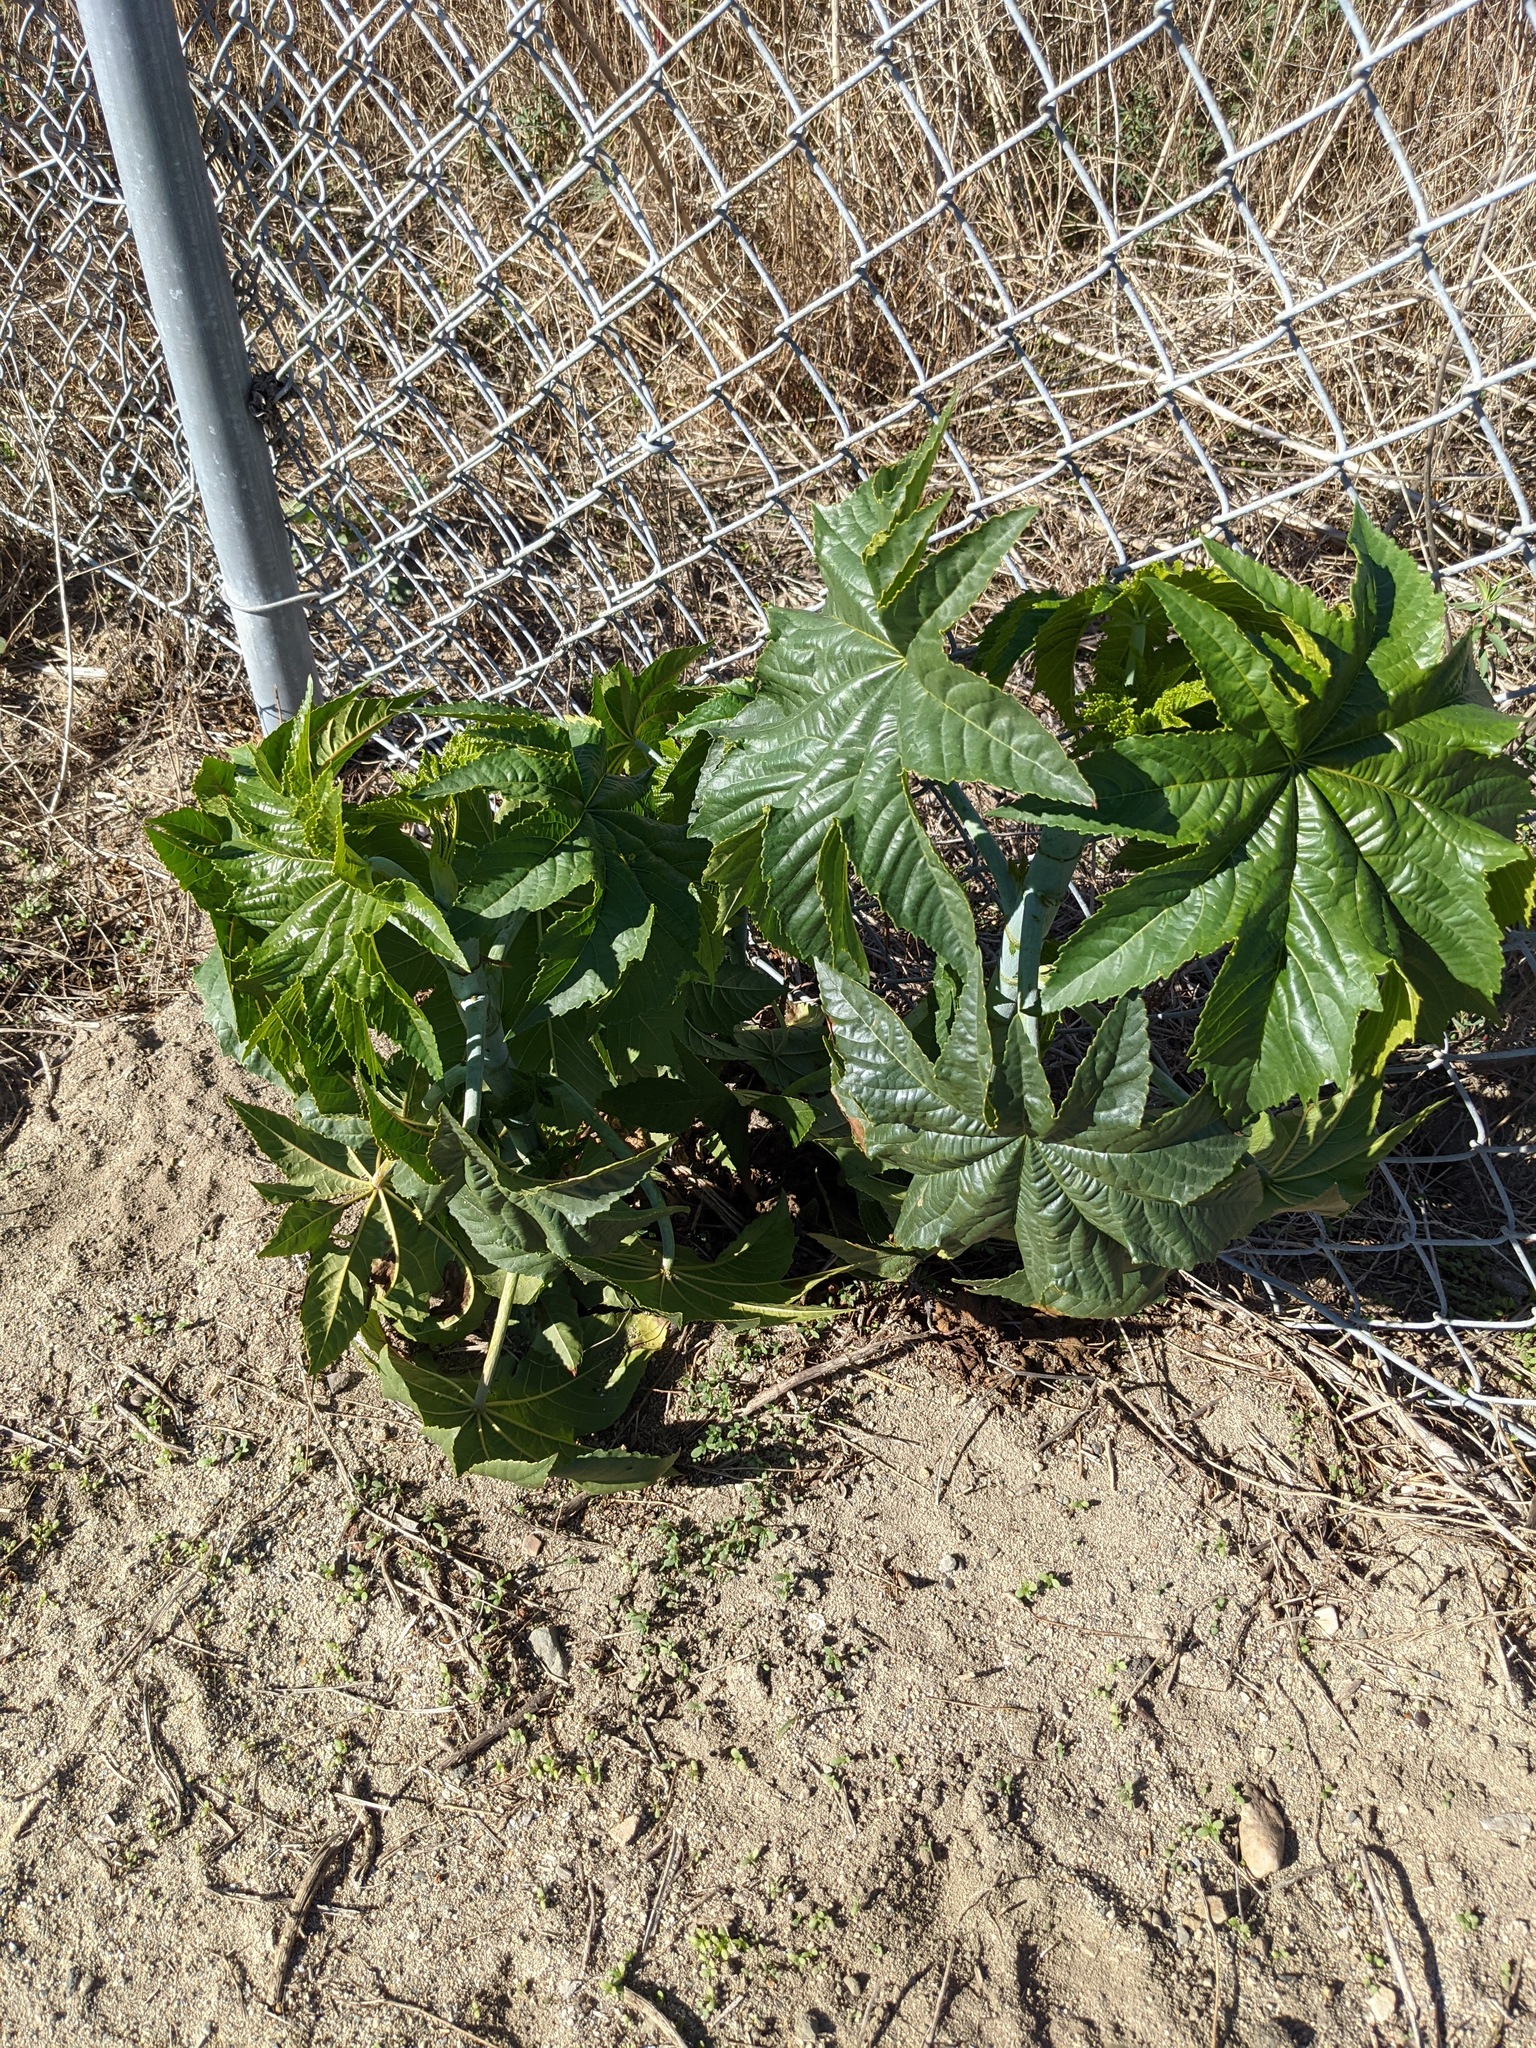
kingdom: Plantae
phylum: Tracheophyta
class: Magnoliopsida
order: Malpighiales
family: Euphorbiaceae
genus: Ricinus
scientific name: Ricinus communis
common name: Castor-oil-plant
